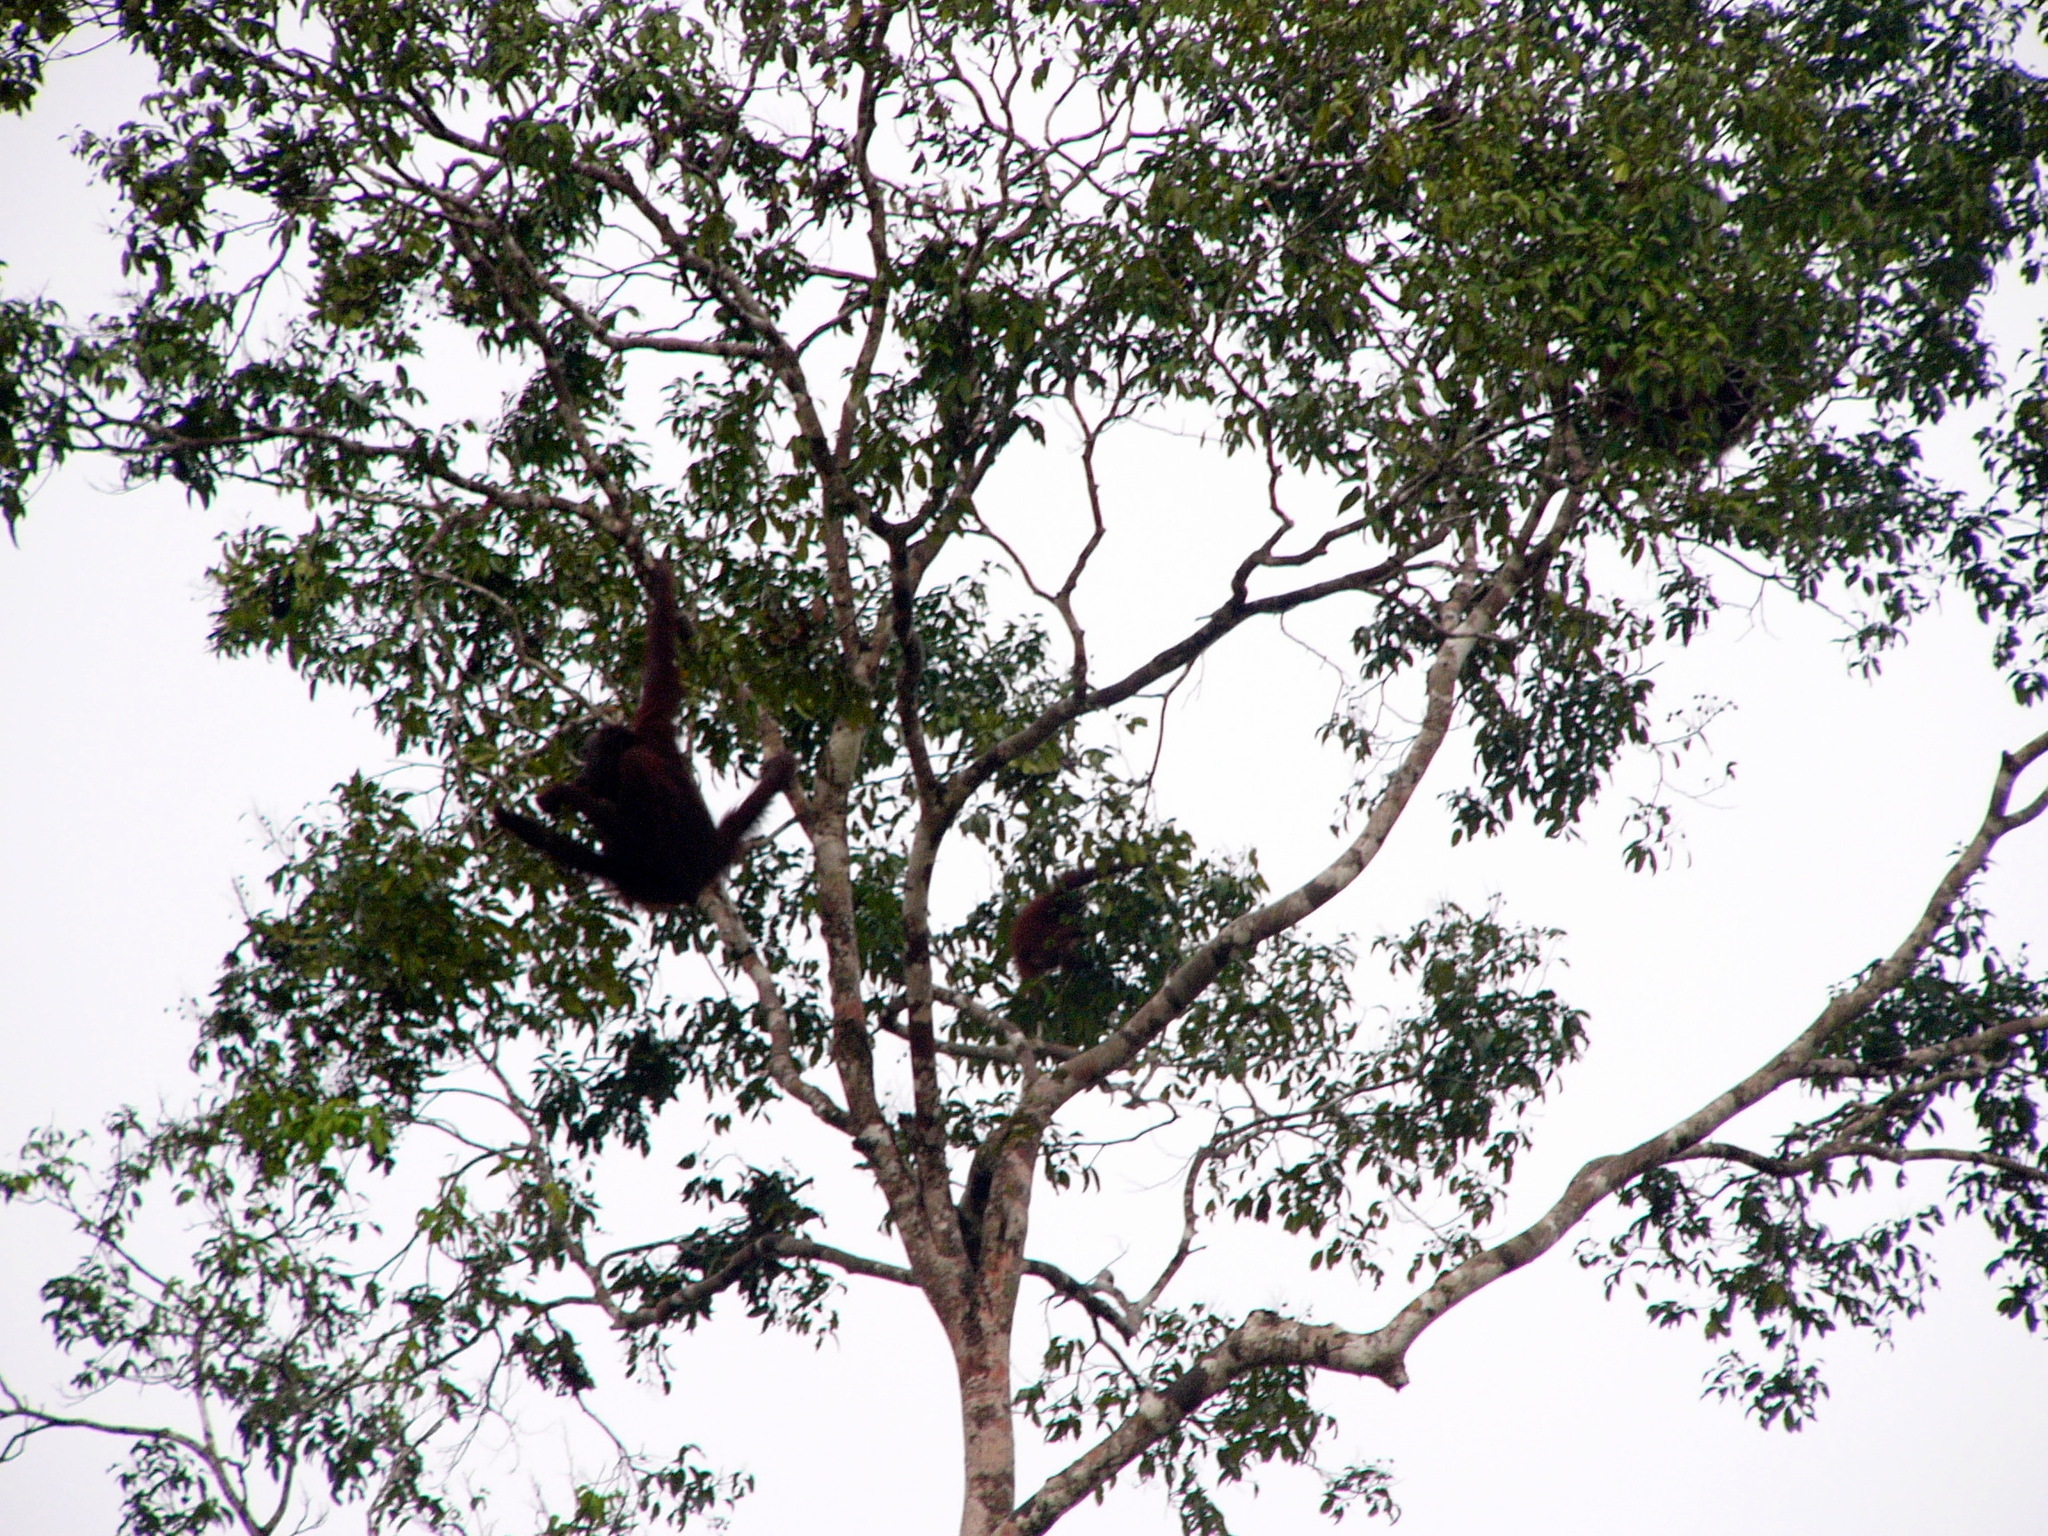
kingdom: Animalia
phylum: Chordata
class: Mammalia
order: Primates
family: Hominidae
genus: Pongo
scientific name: Pongo pygmaeus
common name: Bornean orangutan
